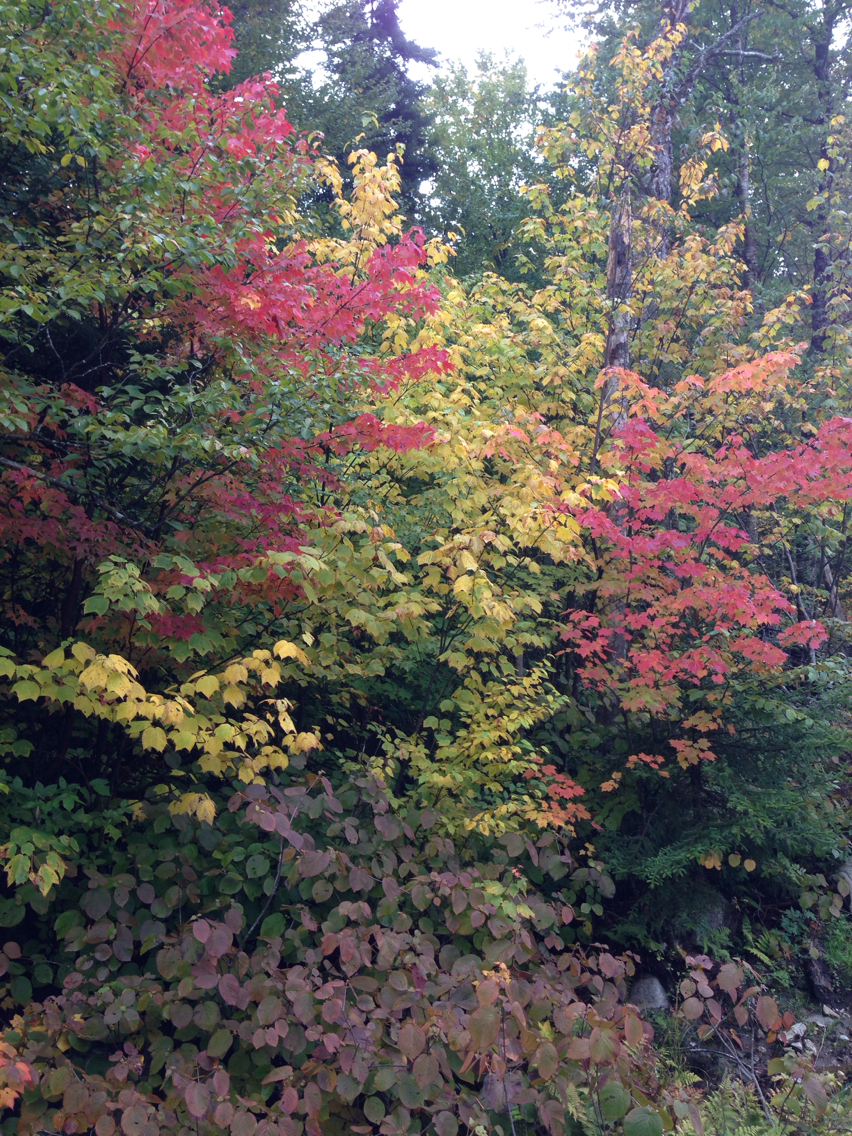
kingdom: Plantae
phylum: Tracheophyta
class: Magnoliopsida
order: Sapindales
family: Sapindaceae
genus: Acer
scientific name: Acer pensylvanicum
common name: Moosewood
